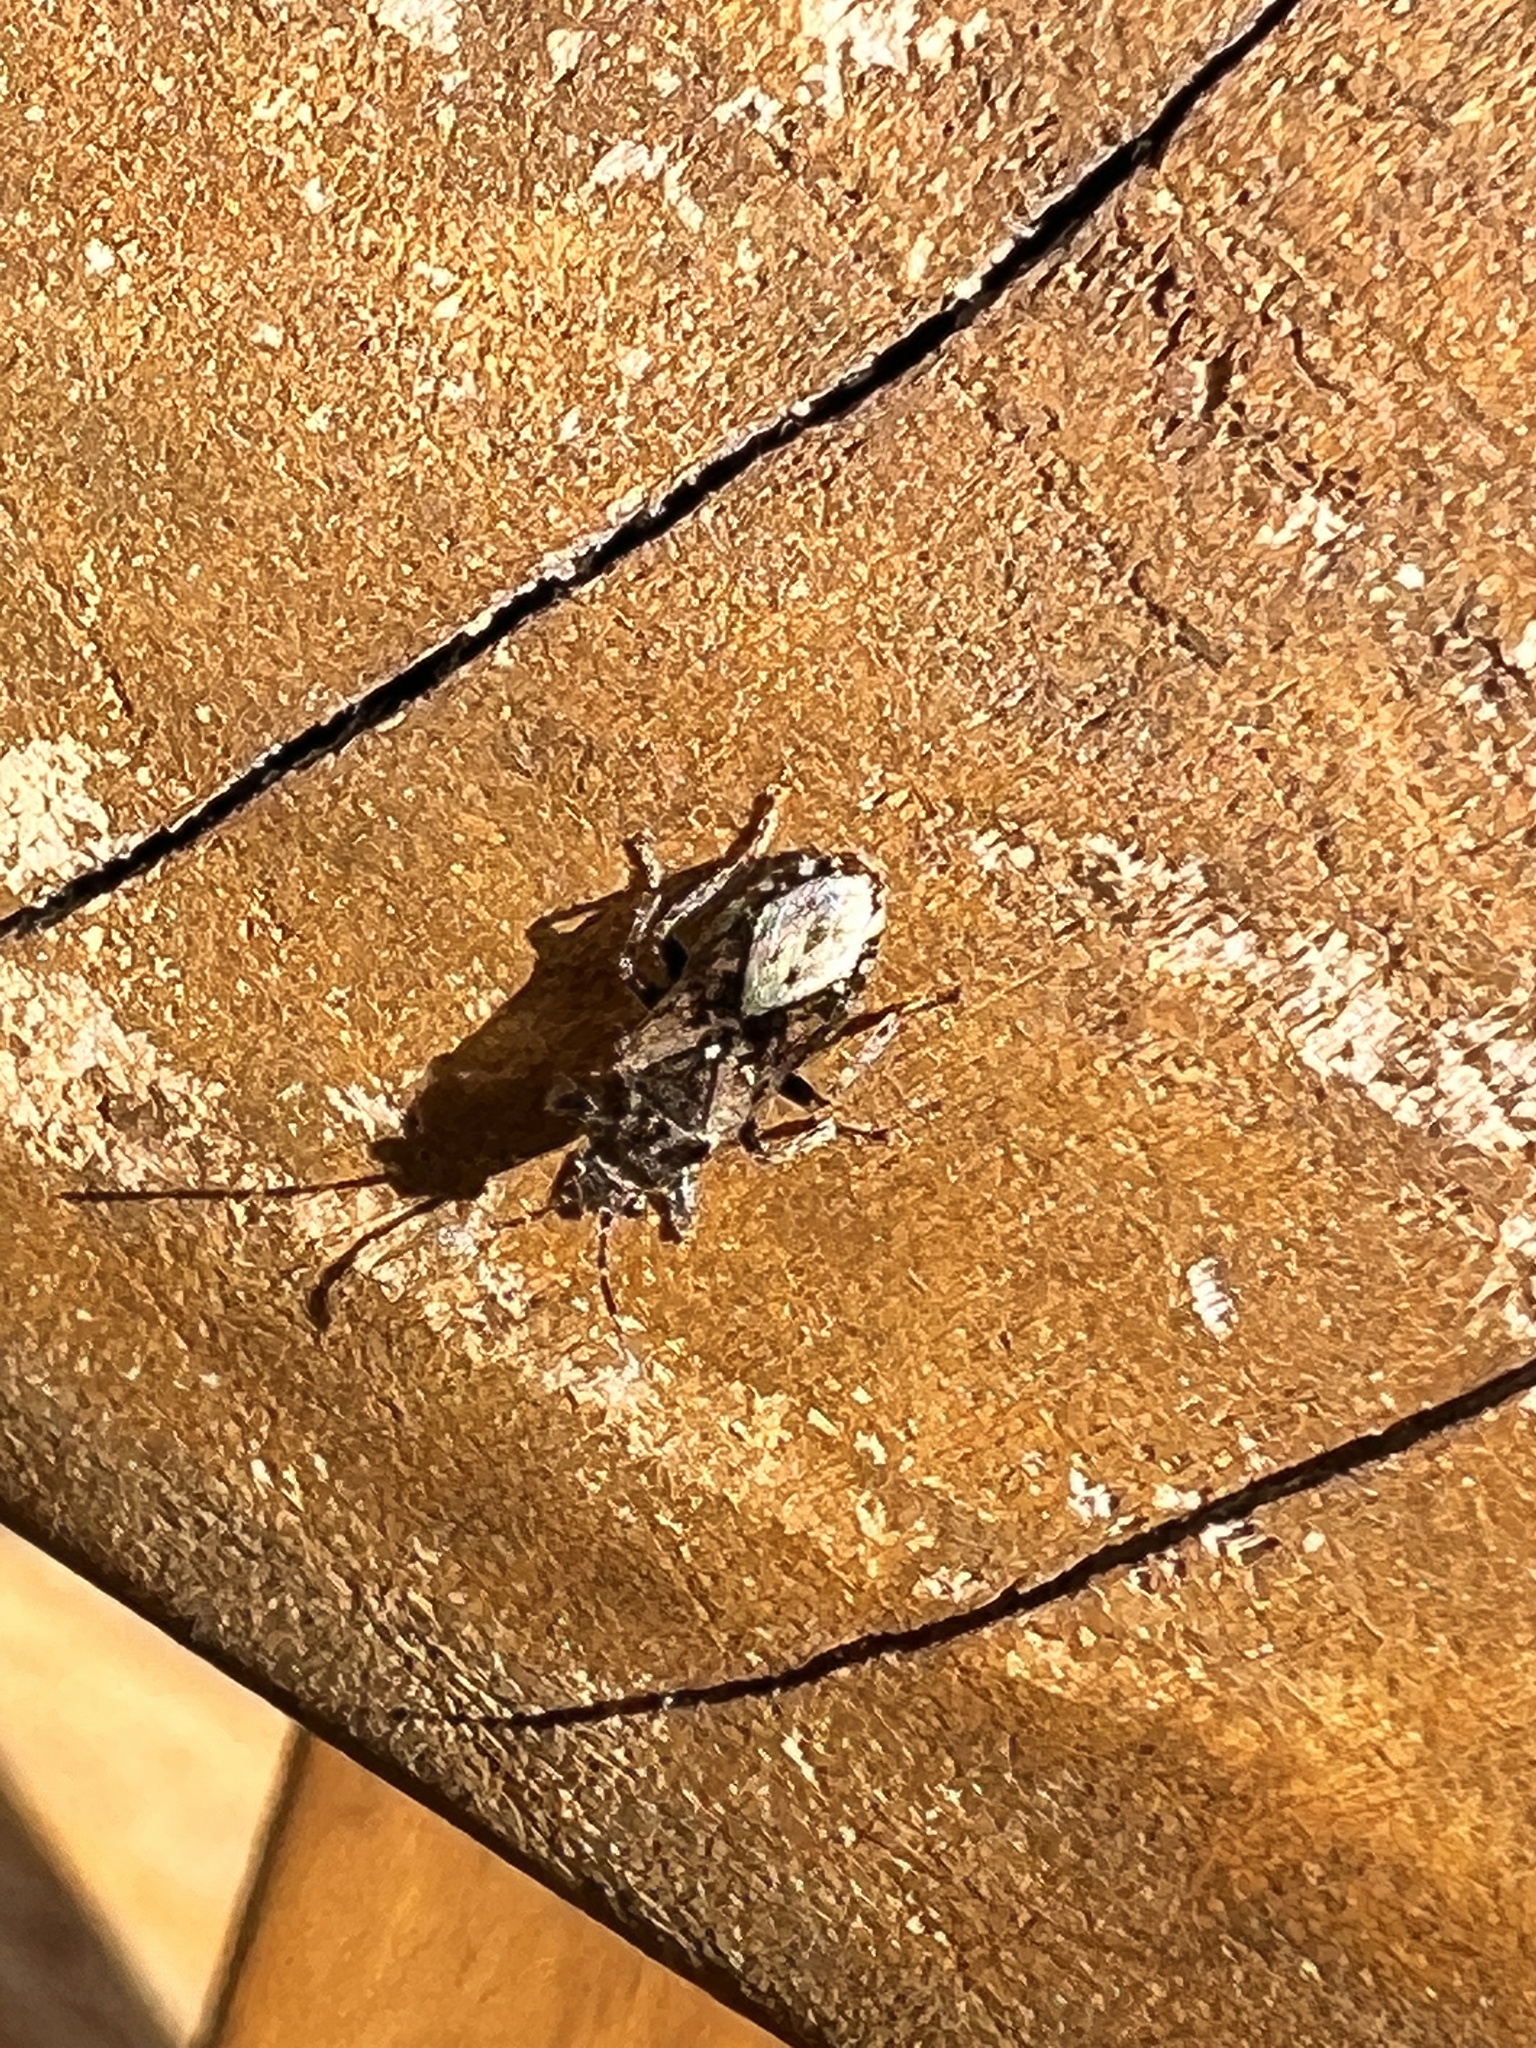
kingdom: Animalia
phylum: Arthropoda
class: Insecta
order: Hemiptera
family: Heterogastridae
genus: Heterogaster
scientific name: Heterogaster urticae
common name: Seed bug
